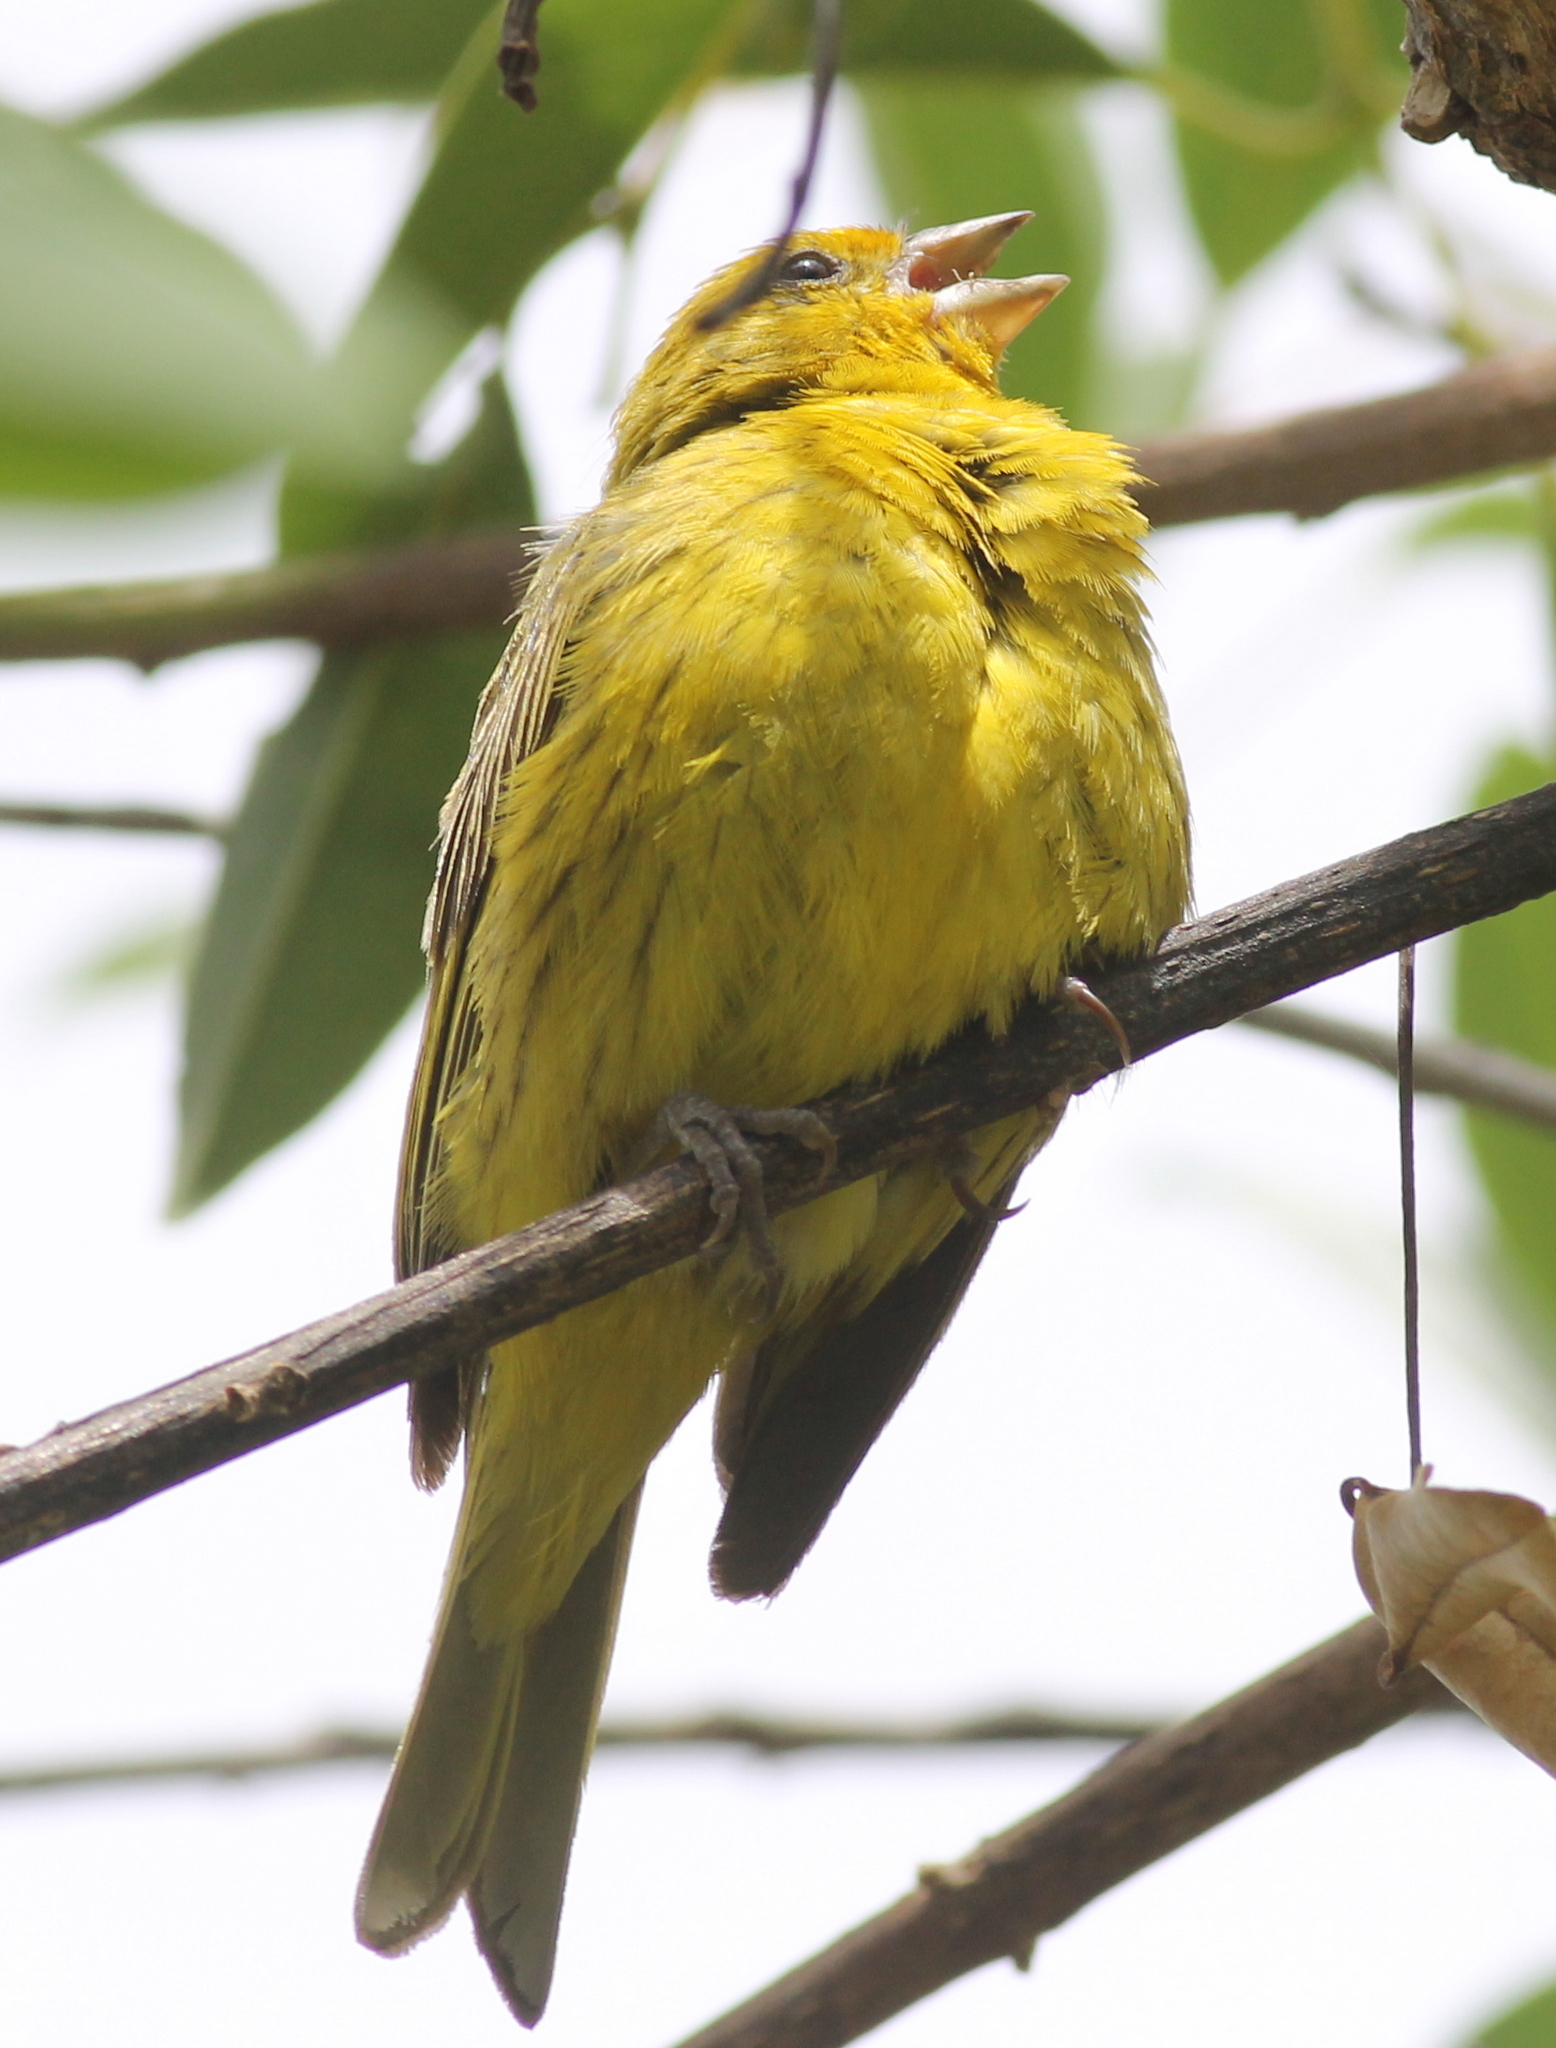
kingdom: Animalia
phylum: Chordata
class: Aves
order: Passeriformes
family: Thraupidae
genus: Sicalis
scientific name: Sicalis flaveola
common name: Saffron finch
